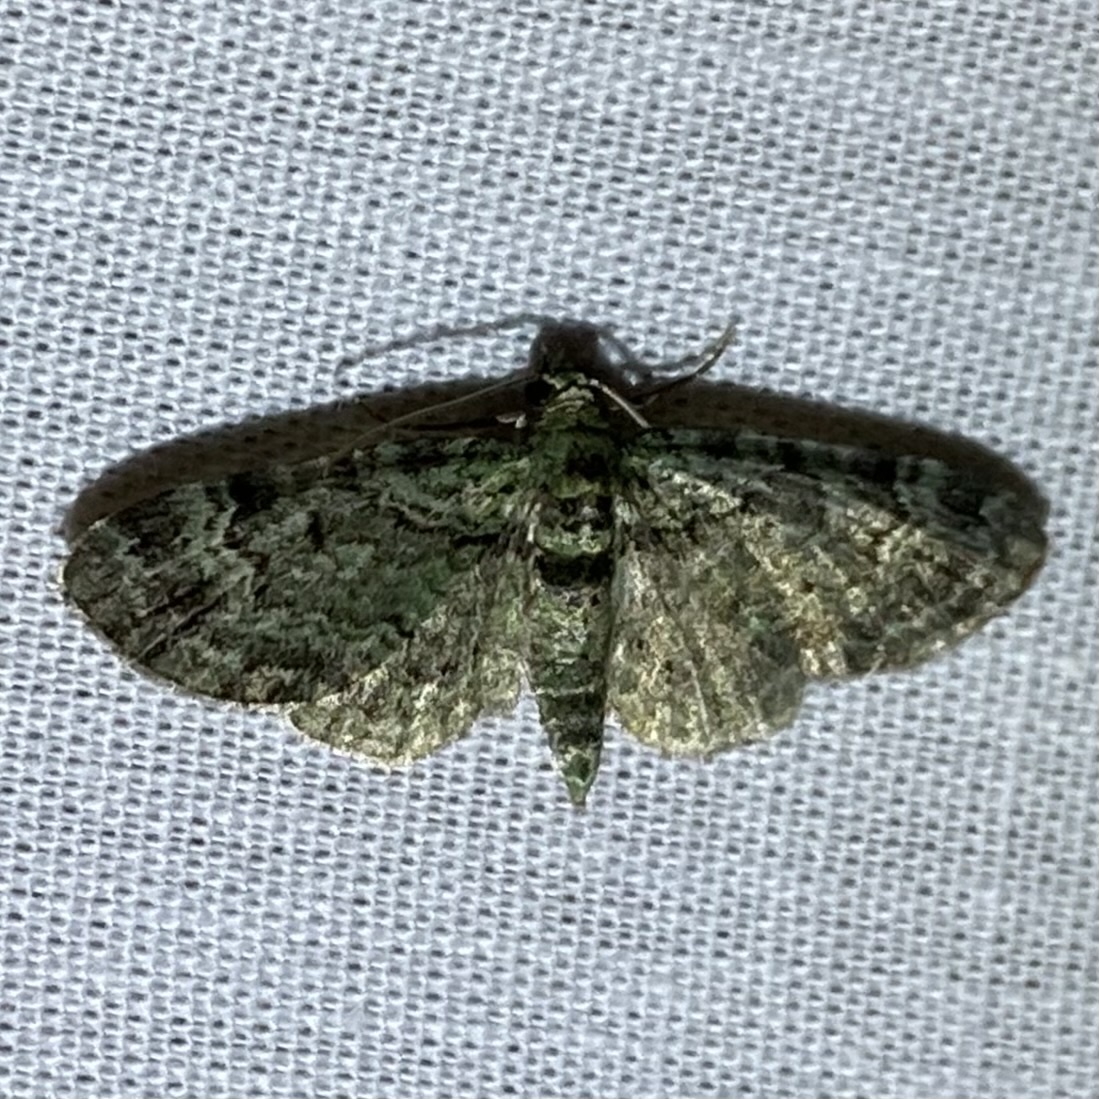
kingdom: Animalia
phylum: Arthropoda
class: Insecta
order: Lepidoptera
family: Geometridae
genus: Pasiphila
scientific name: Pasiphila rectangulata
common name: Green pug
